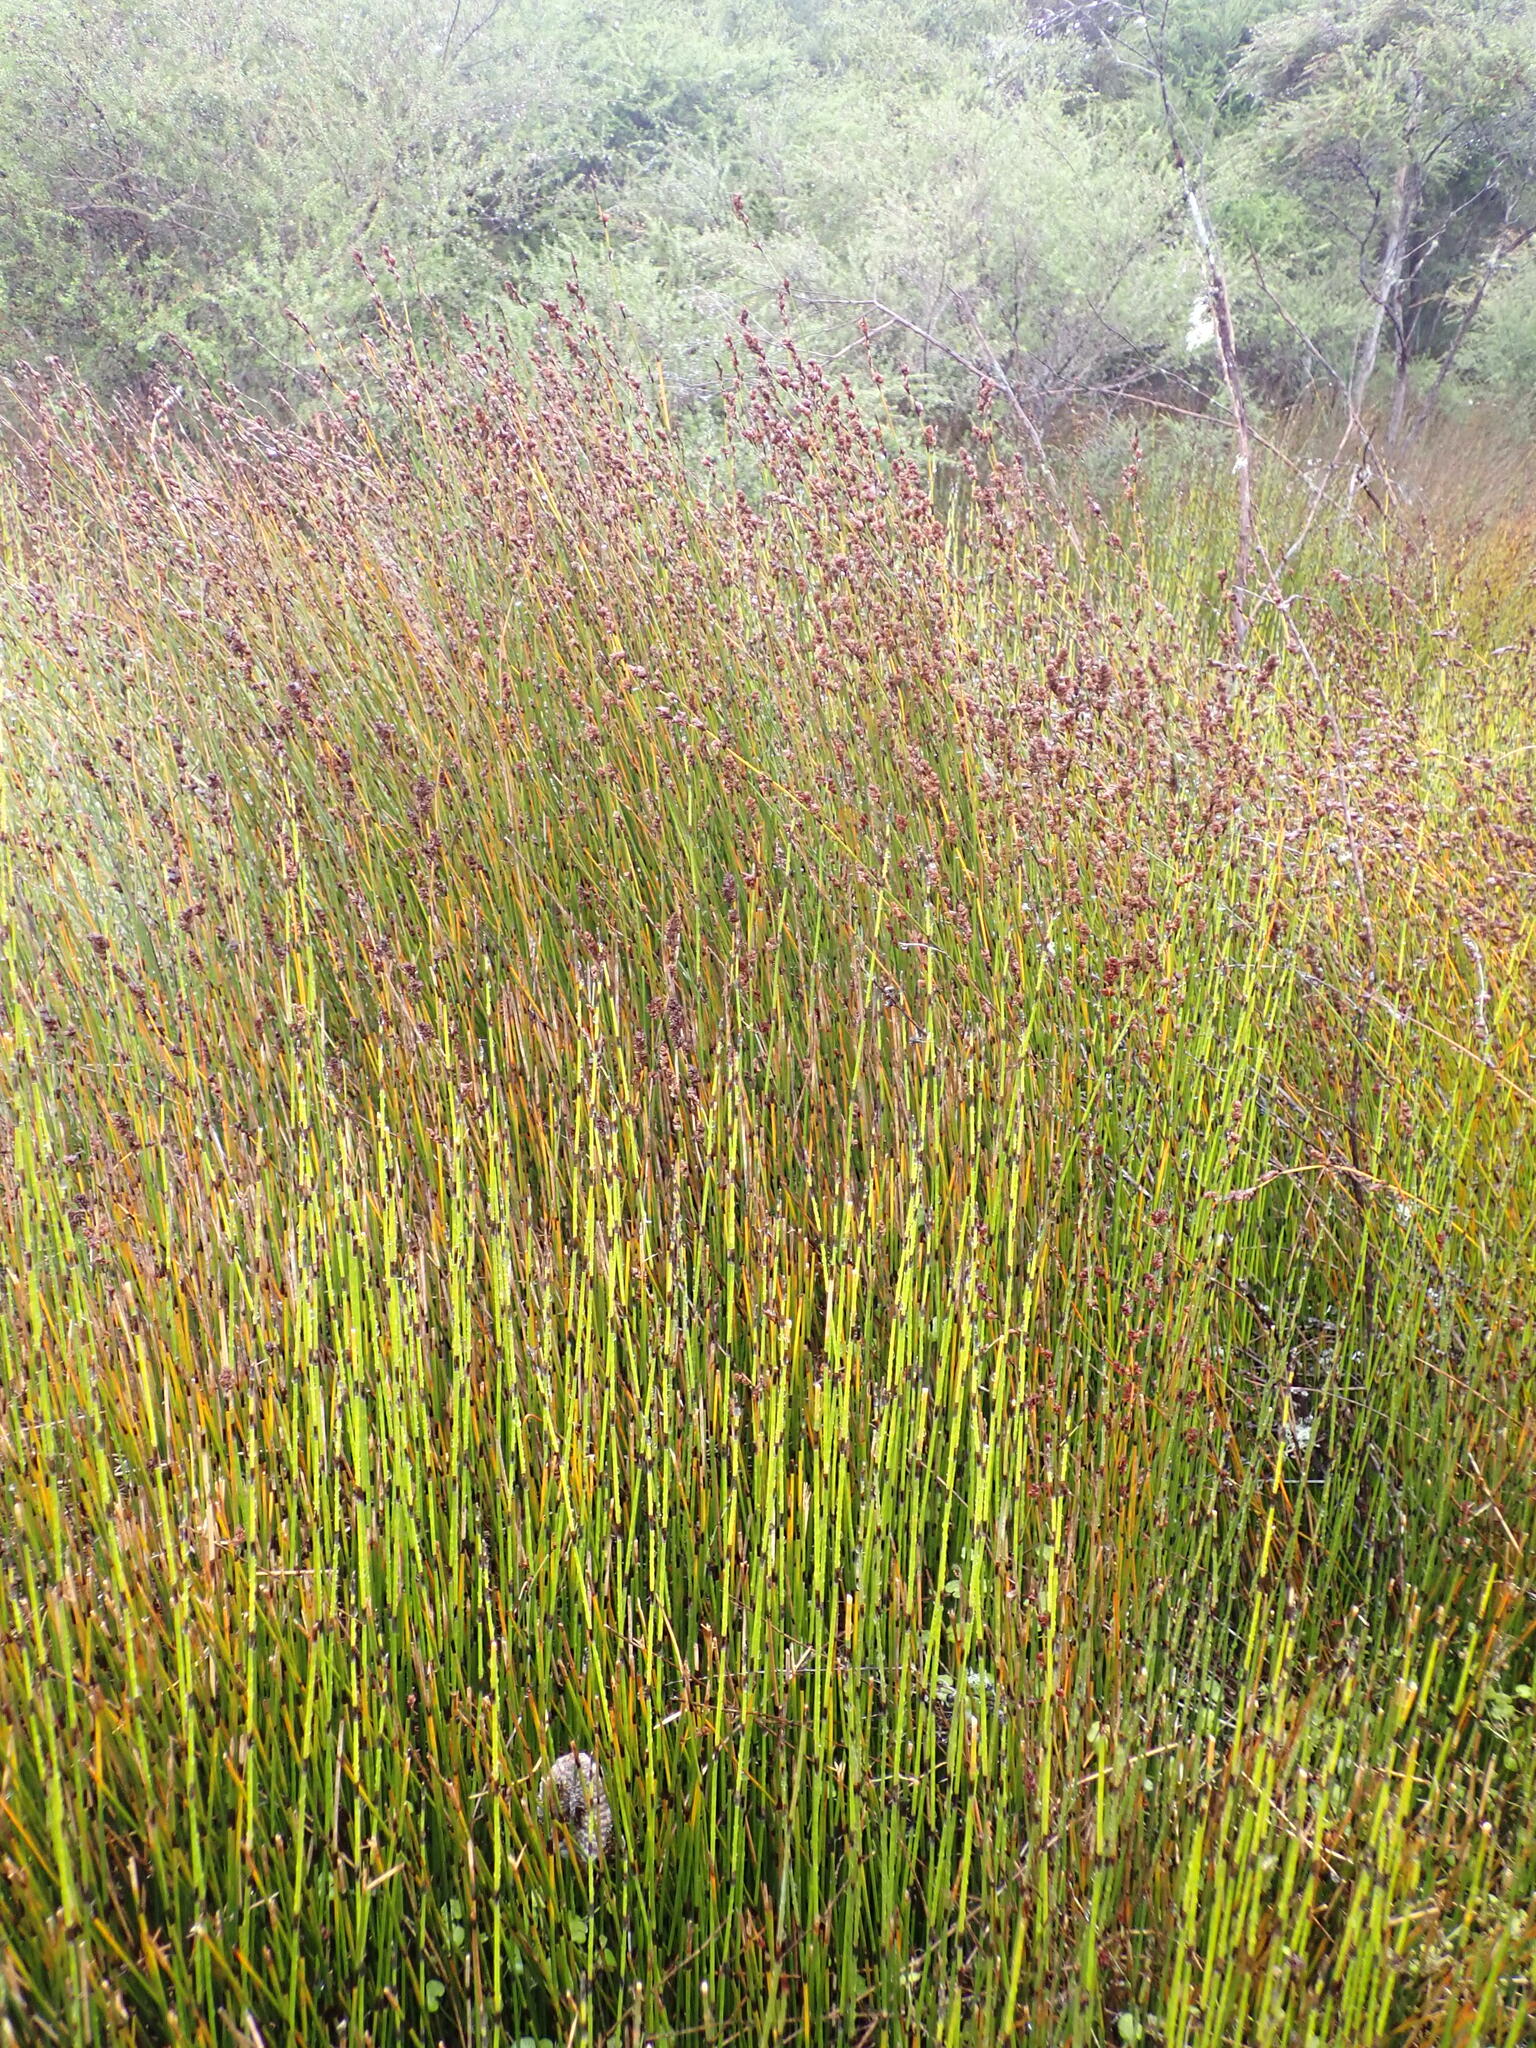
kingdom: Plantae
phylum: Tracheophyta
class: Liliopsida
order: Poales
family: Restionaceae
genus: Apodasmia
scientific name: Apodasmia similis
